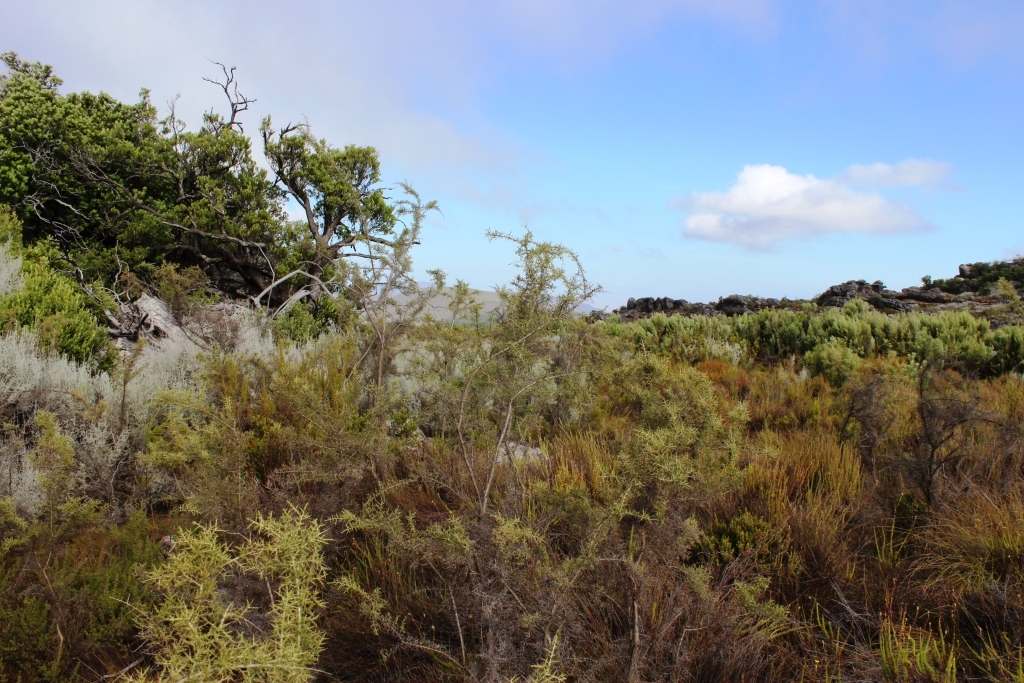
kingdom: Plantae
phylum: Tracheophyta
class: Magnoliopsida
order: Fabales
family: Fabaceae
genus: Aspalathus
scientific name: Aspalathus acuminata
